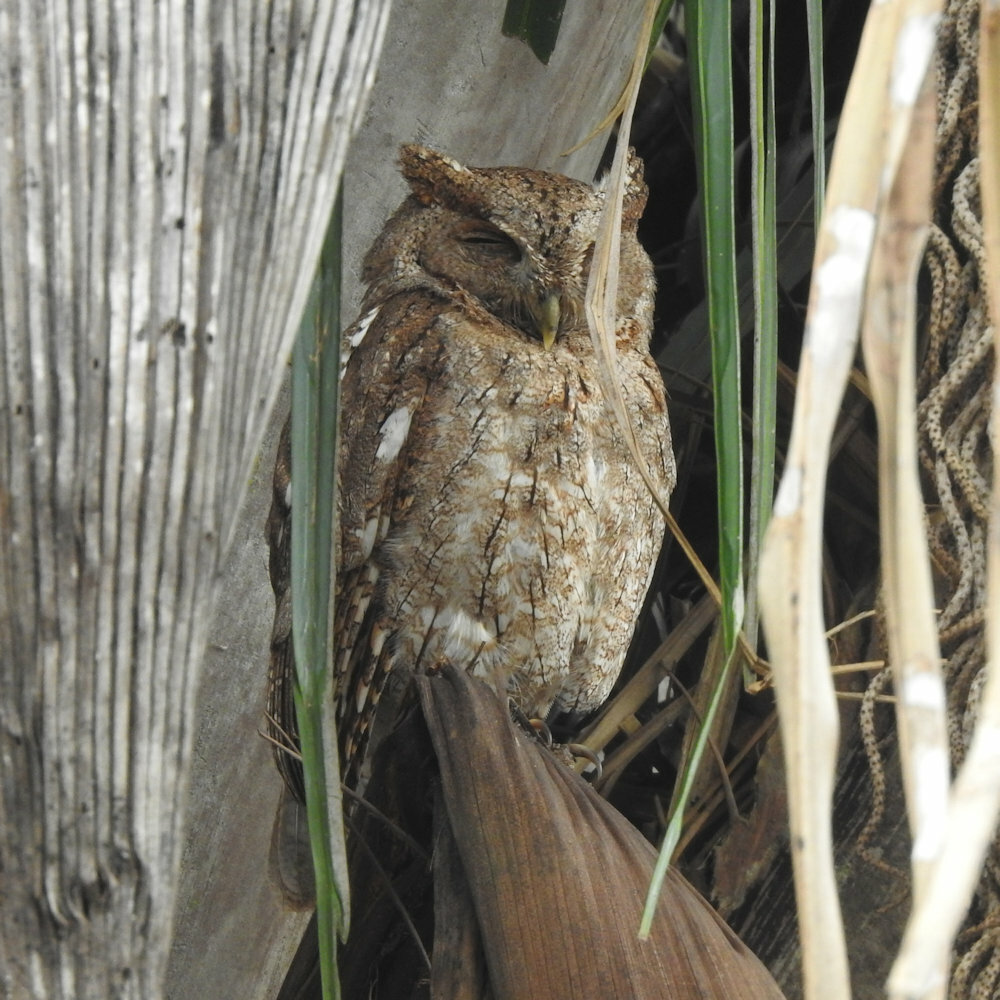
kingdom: Animalia
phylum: Chordata
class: Aves
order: Strigiformes
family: Strigidae
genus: Megascops
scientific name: Megascops cooperi
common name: Pacific screech-owl
